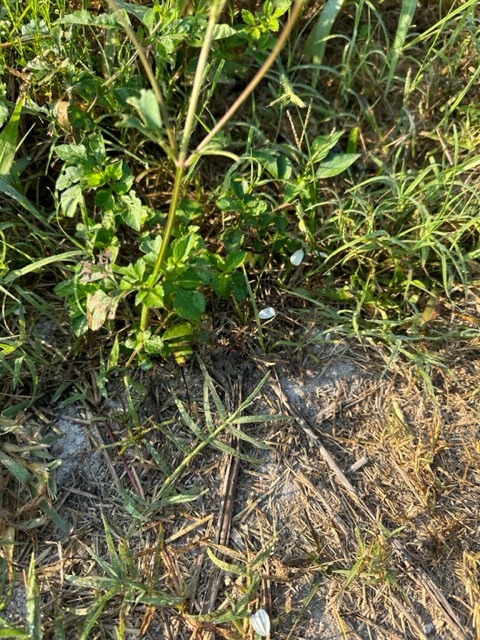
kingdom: Plantae
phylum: Tracheophyta
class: Magnoliopsida
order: Asterales
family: Asteraceae
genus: Bidens
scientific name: Bidens alba
